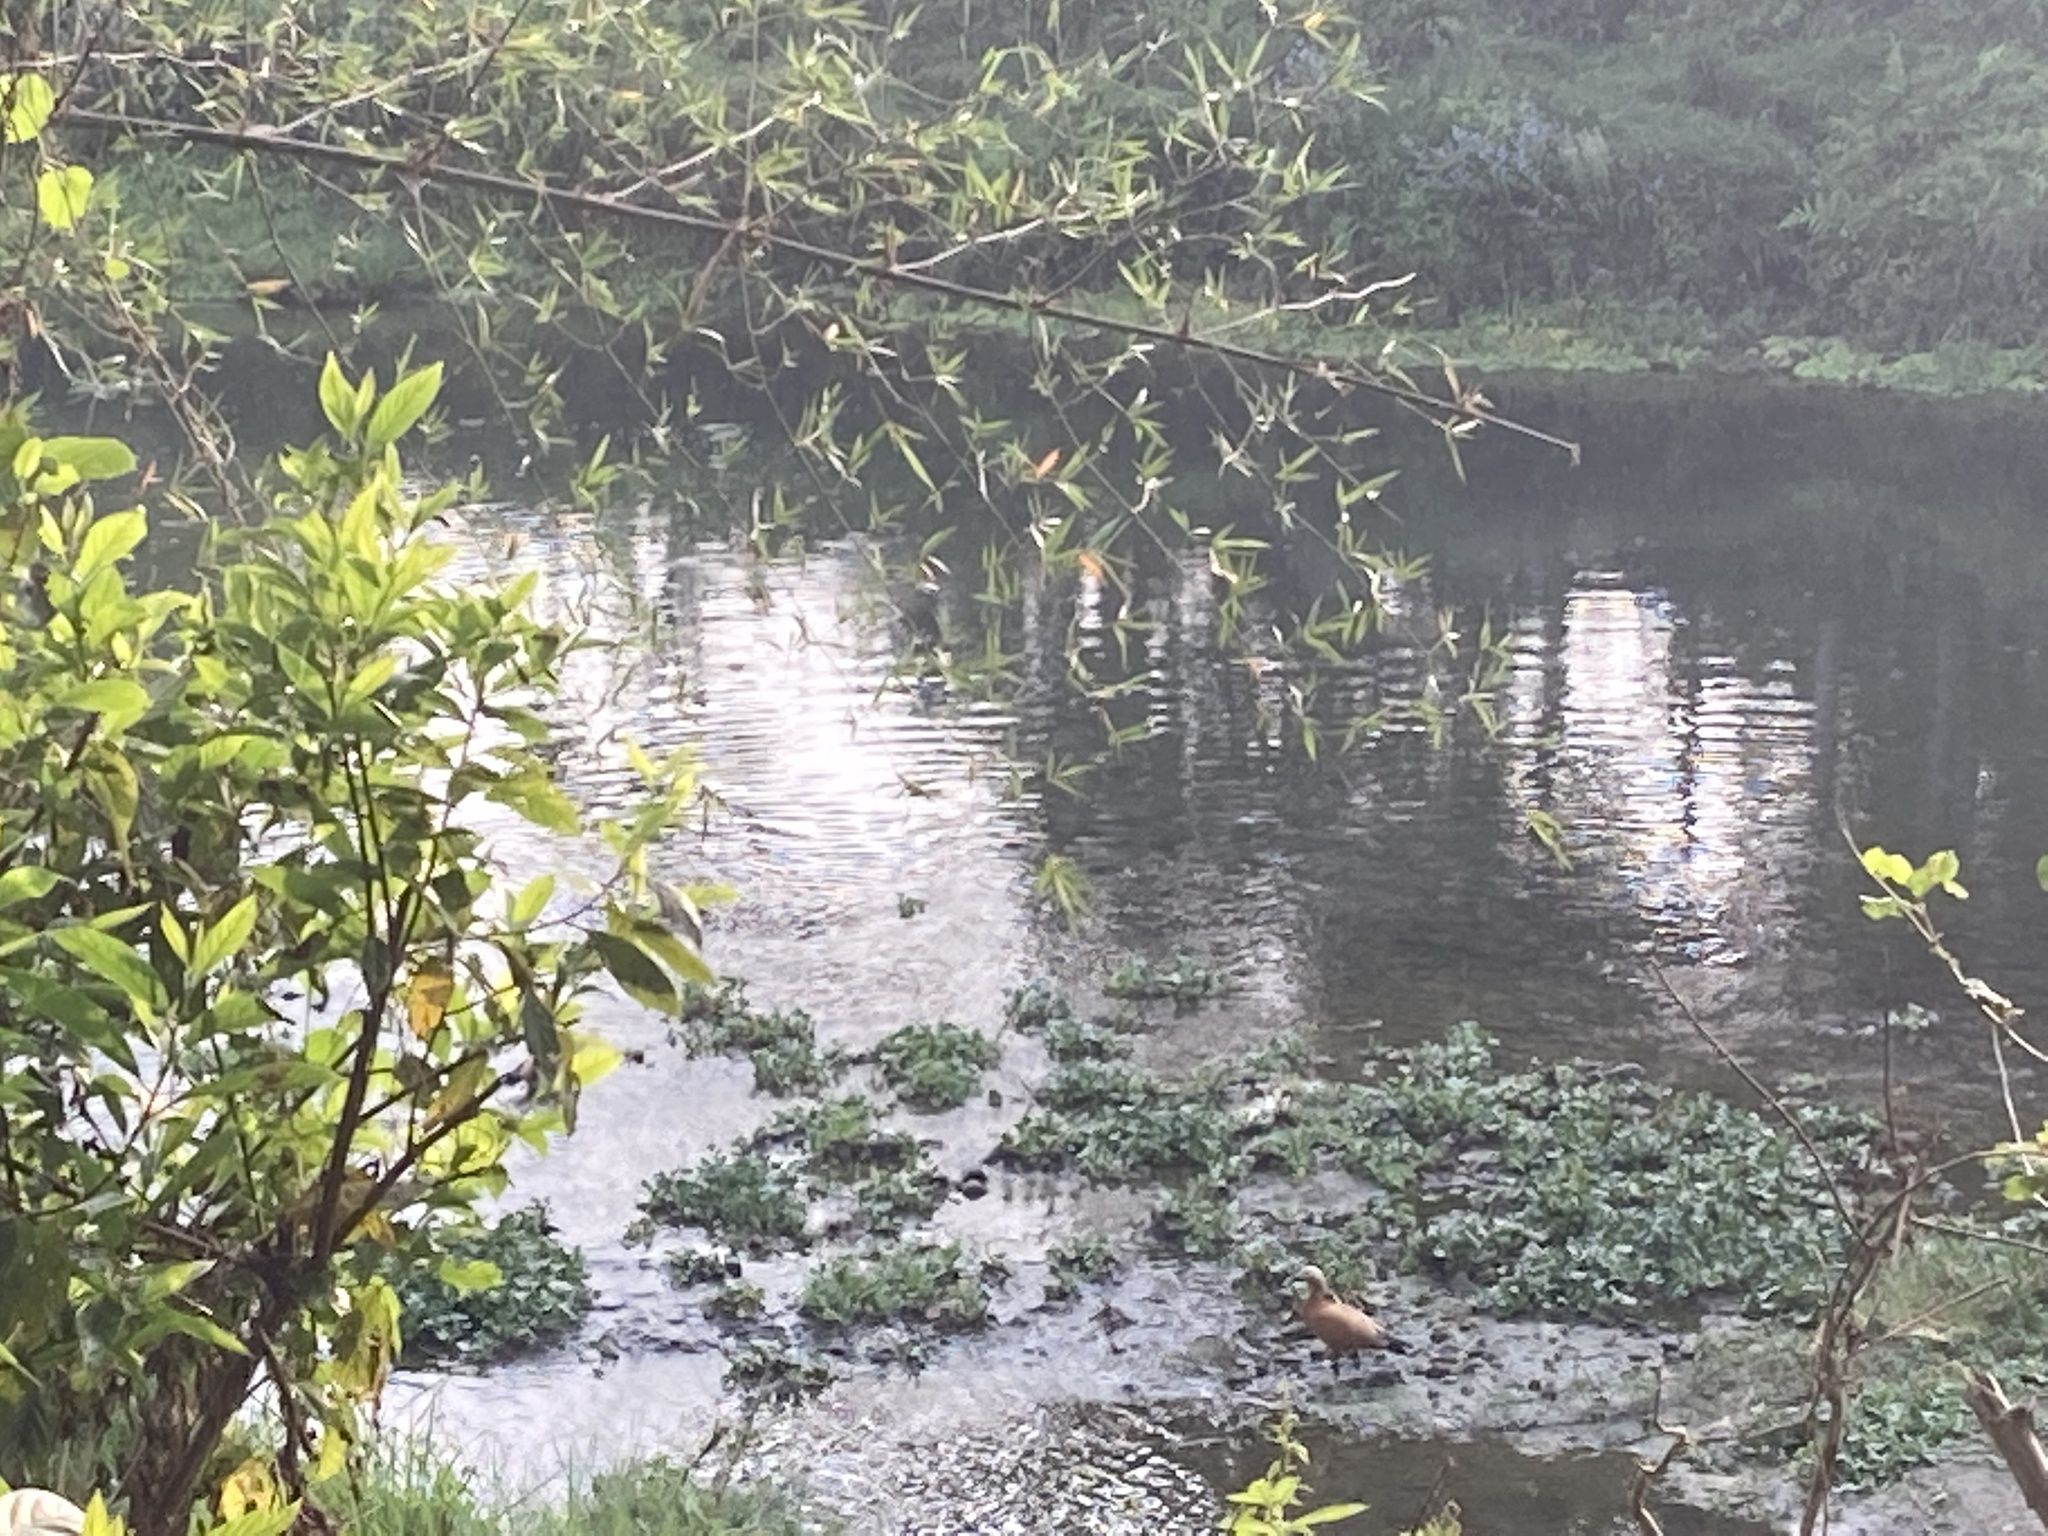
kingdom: Animalia
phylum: Chordata
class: Aves
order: Anseriformes
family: Anatidae
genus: Tadorna
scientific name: Tadorna ferruginea
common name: Ruddy shelduck
